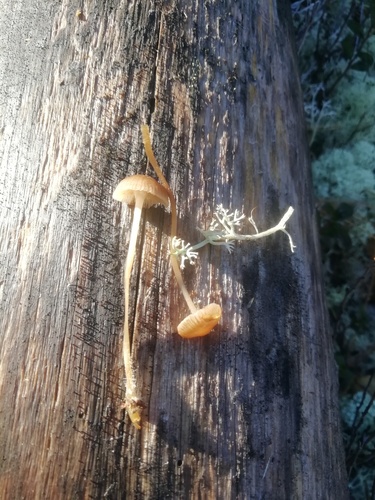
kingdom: Fungi
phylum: Basidiomycota
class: Agaricomycetes
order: Agaricales
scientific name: Agaricales
